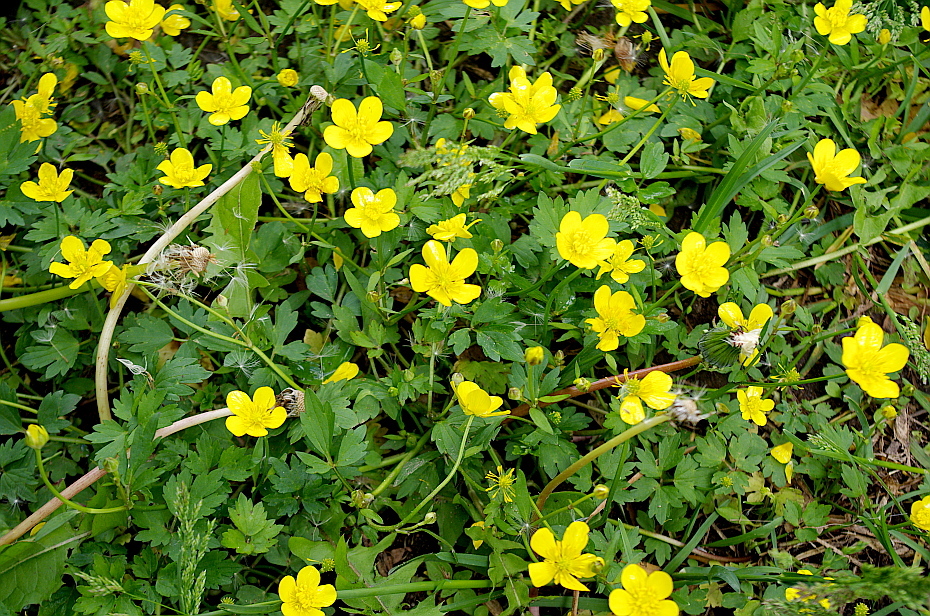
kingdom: Plantae
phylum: Tracheophyta
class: Magnoliopsida
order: Ranunculales
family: Ranunculaceae
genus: Ranunculus
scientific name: Ranunculus repens
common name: Creeping buttercup
